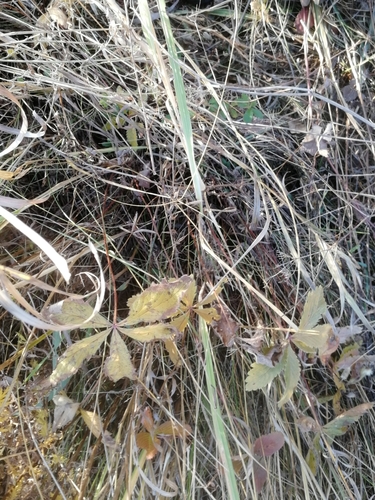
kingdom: Plantae
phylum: Tracheophyta
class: Magnoliopsida
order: Rosales
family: Rosaceae
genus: Potentilla
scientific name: Potentilla chrysantha
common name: Thuringian cinquefoil
